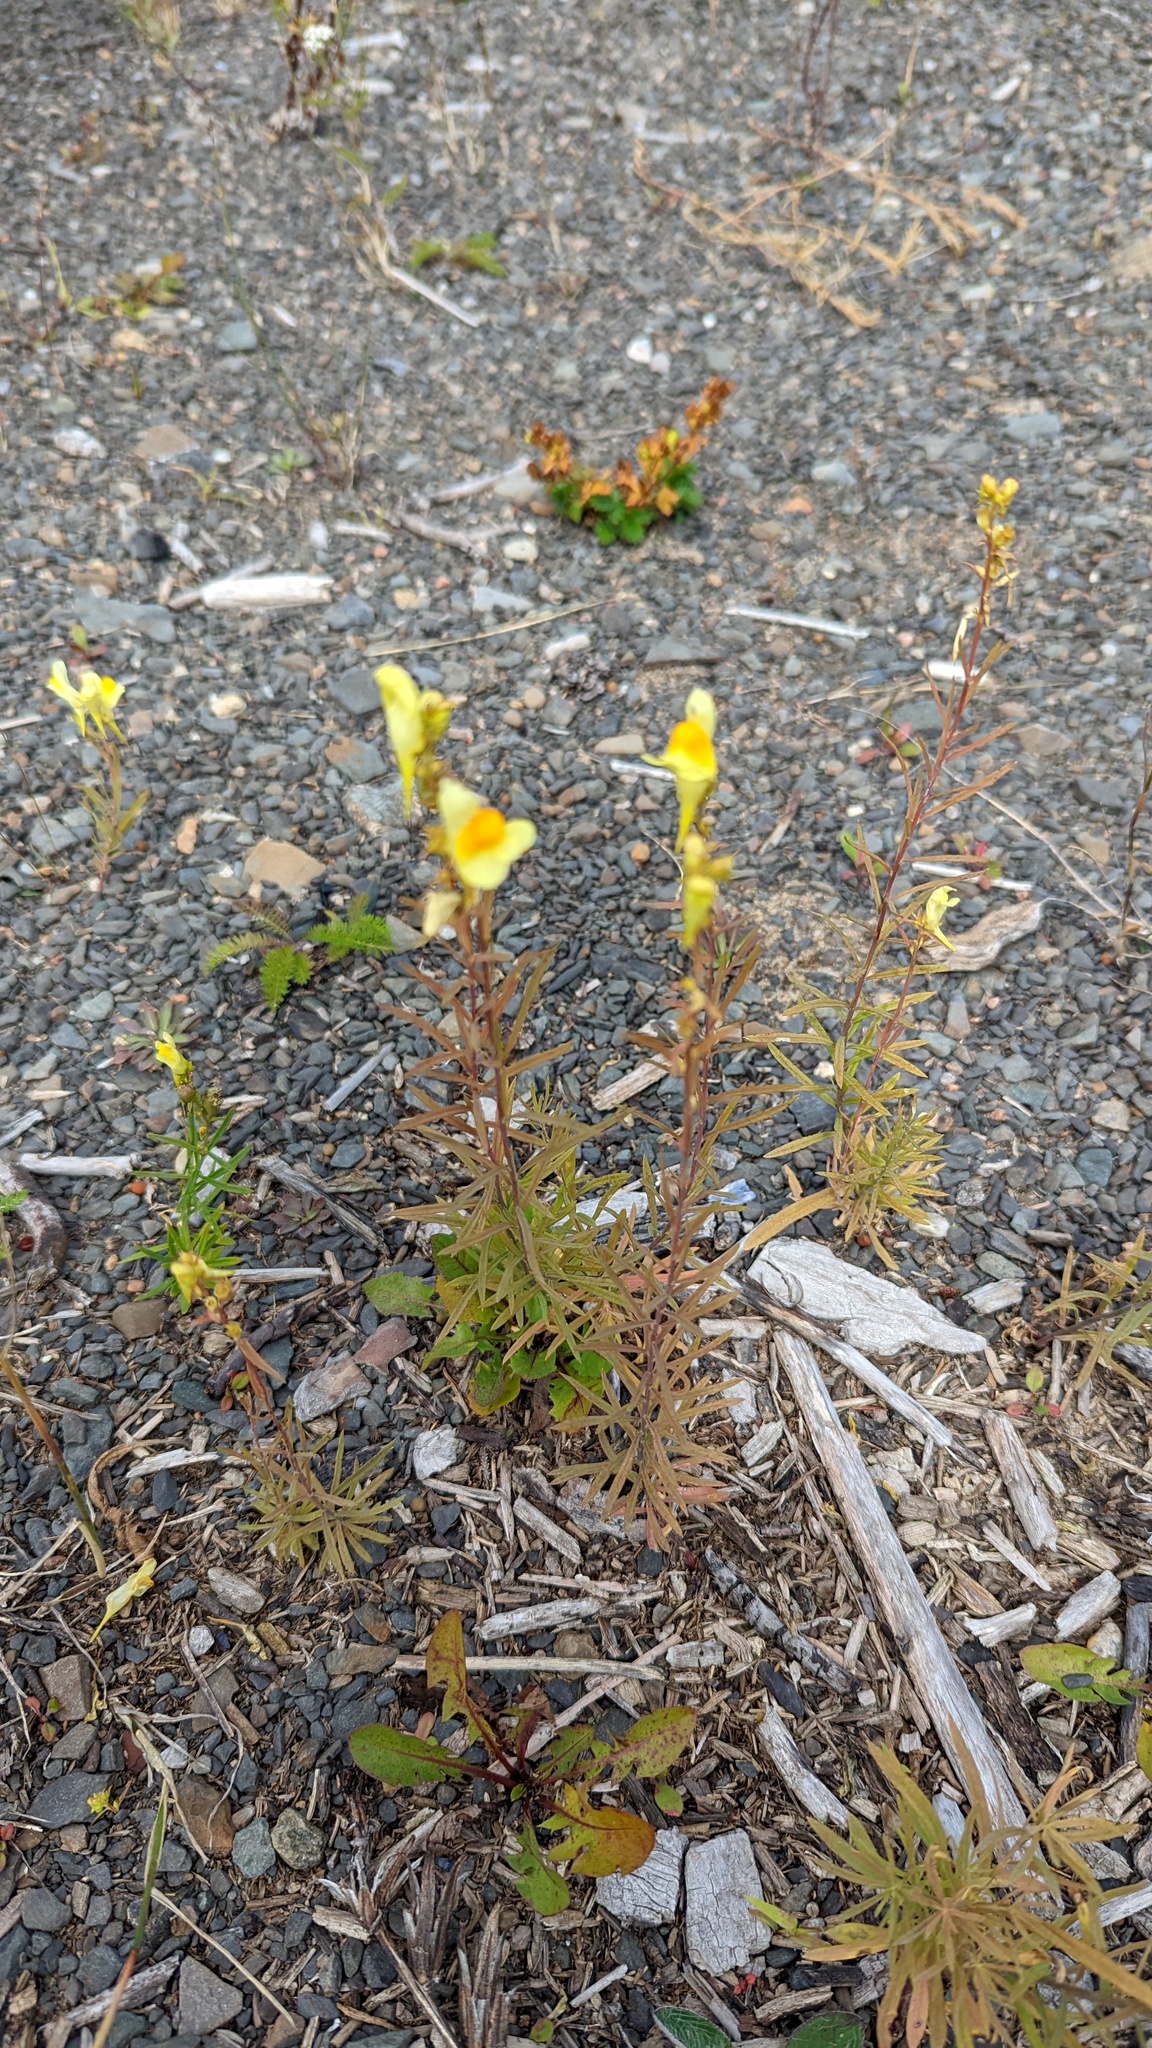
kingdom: Plantae
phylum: Tracheophyta
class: Magnoliopsida
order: Lamiales
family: Plantaginaceae
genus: Linaria
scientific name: Linaria vulgaris
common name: Butter and eggs
